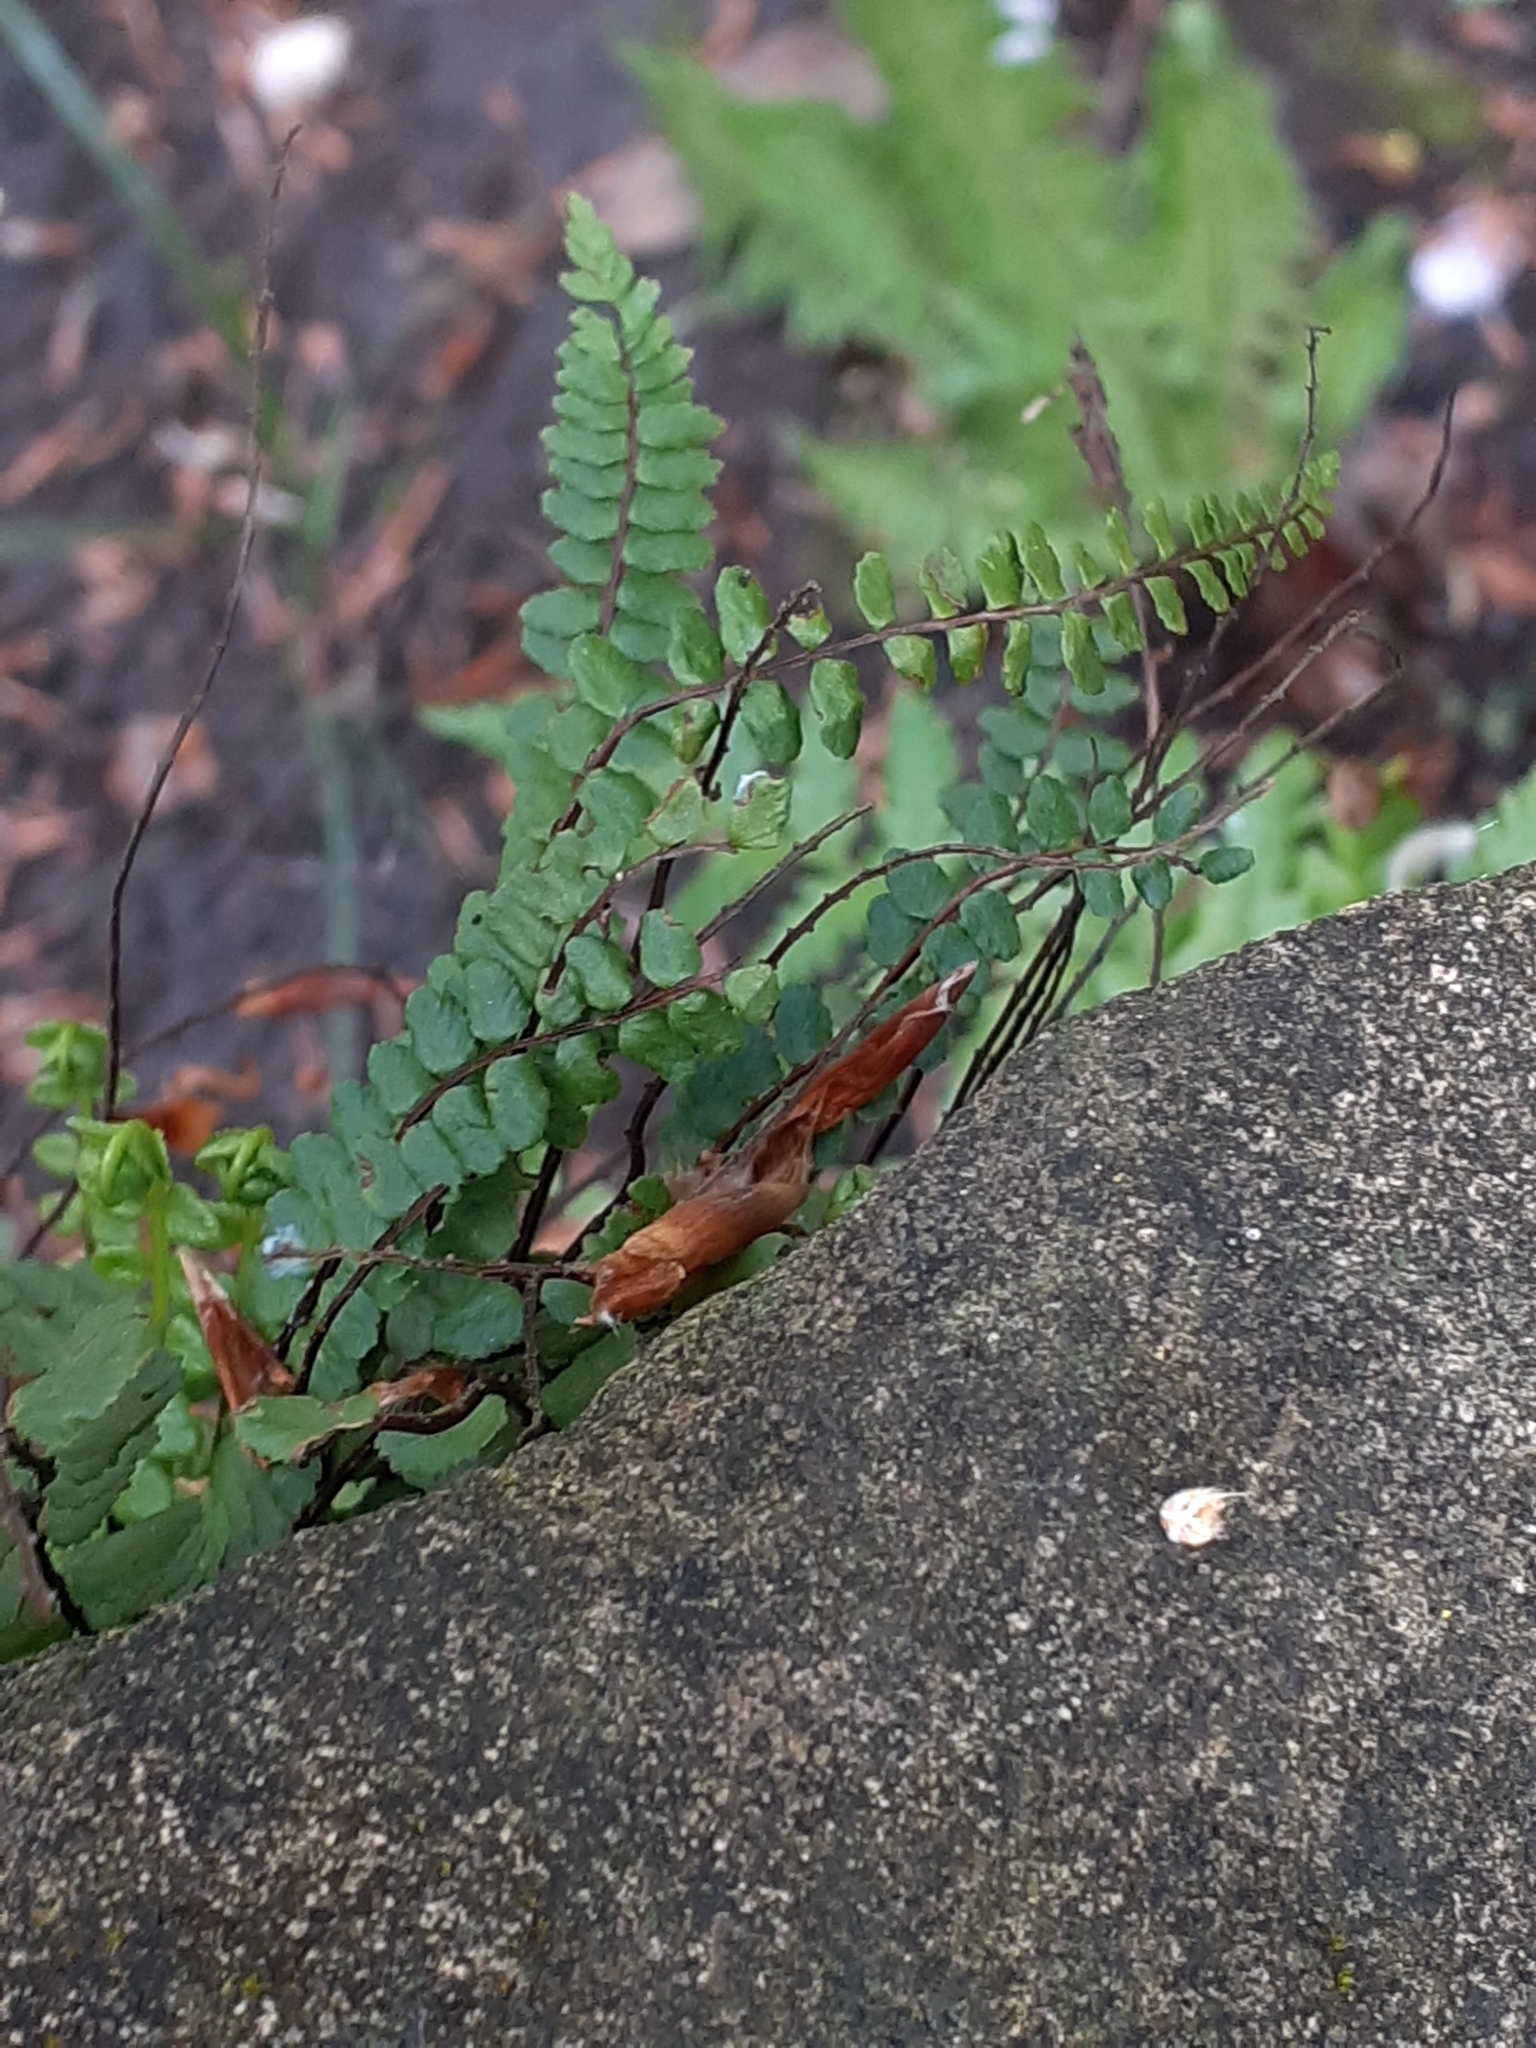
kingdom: Plantae
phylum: Tracheophyta
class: Polypodiopsida
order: Polypodiales
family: Aspleniaceae
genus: Asplenium
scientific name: Asplenium trichomanes
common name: Maidenhair spleenwort
